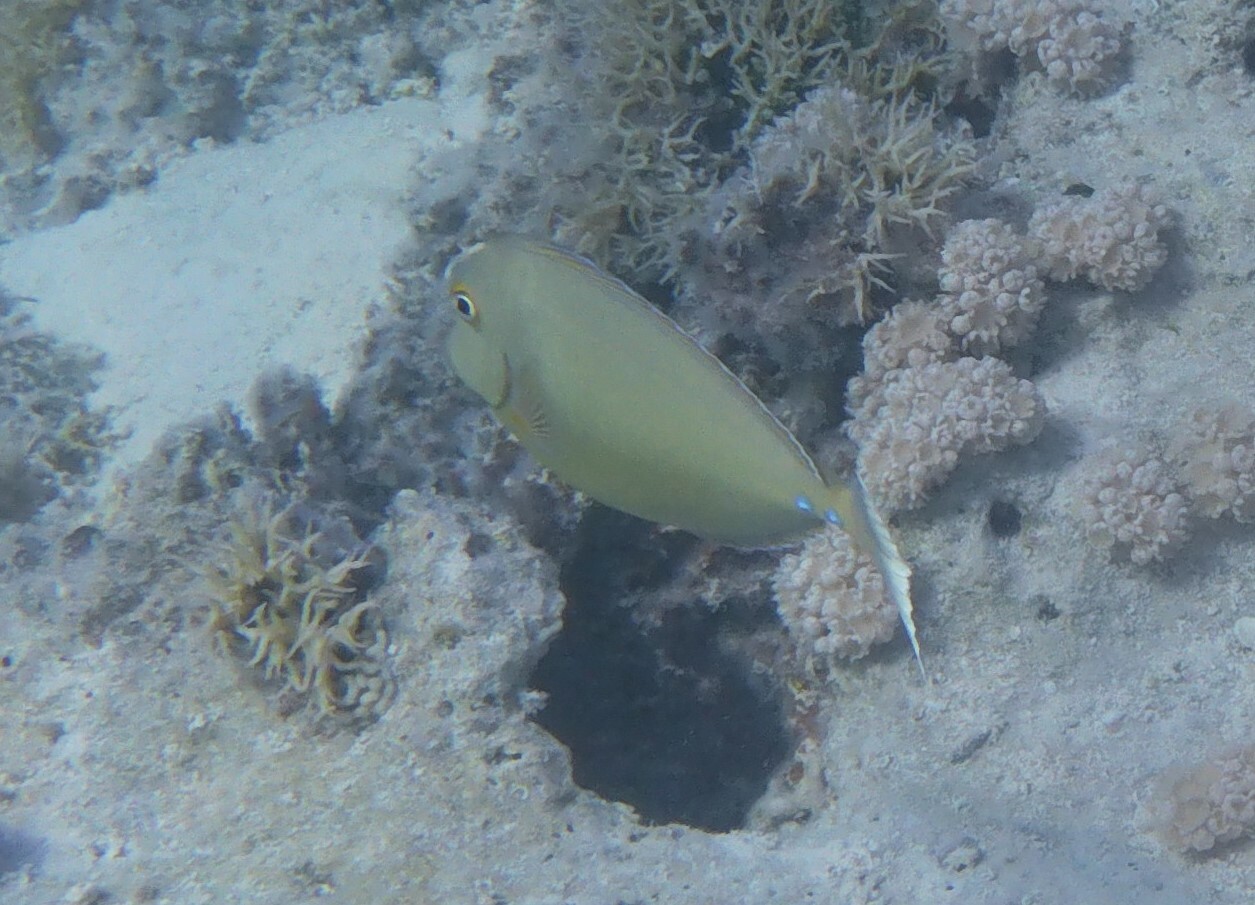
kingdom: Animalia
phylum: Chordata
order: Perciformes
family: Acanthuridae
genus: Naso
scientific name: Naso unicornis
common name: Bluespine unicornfish
